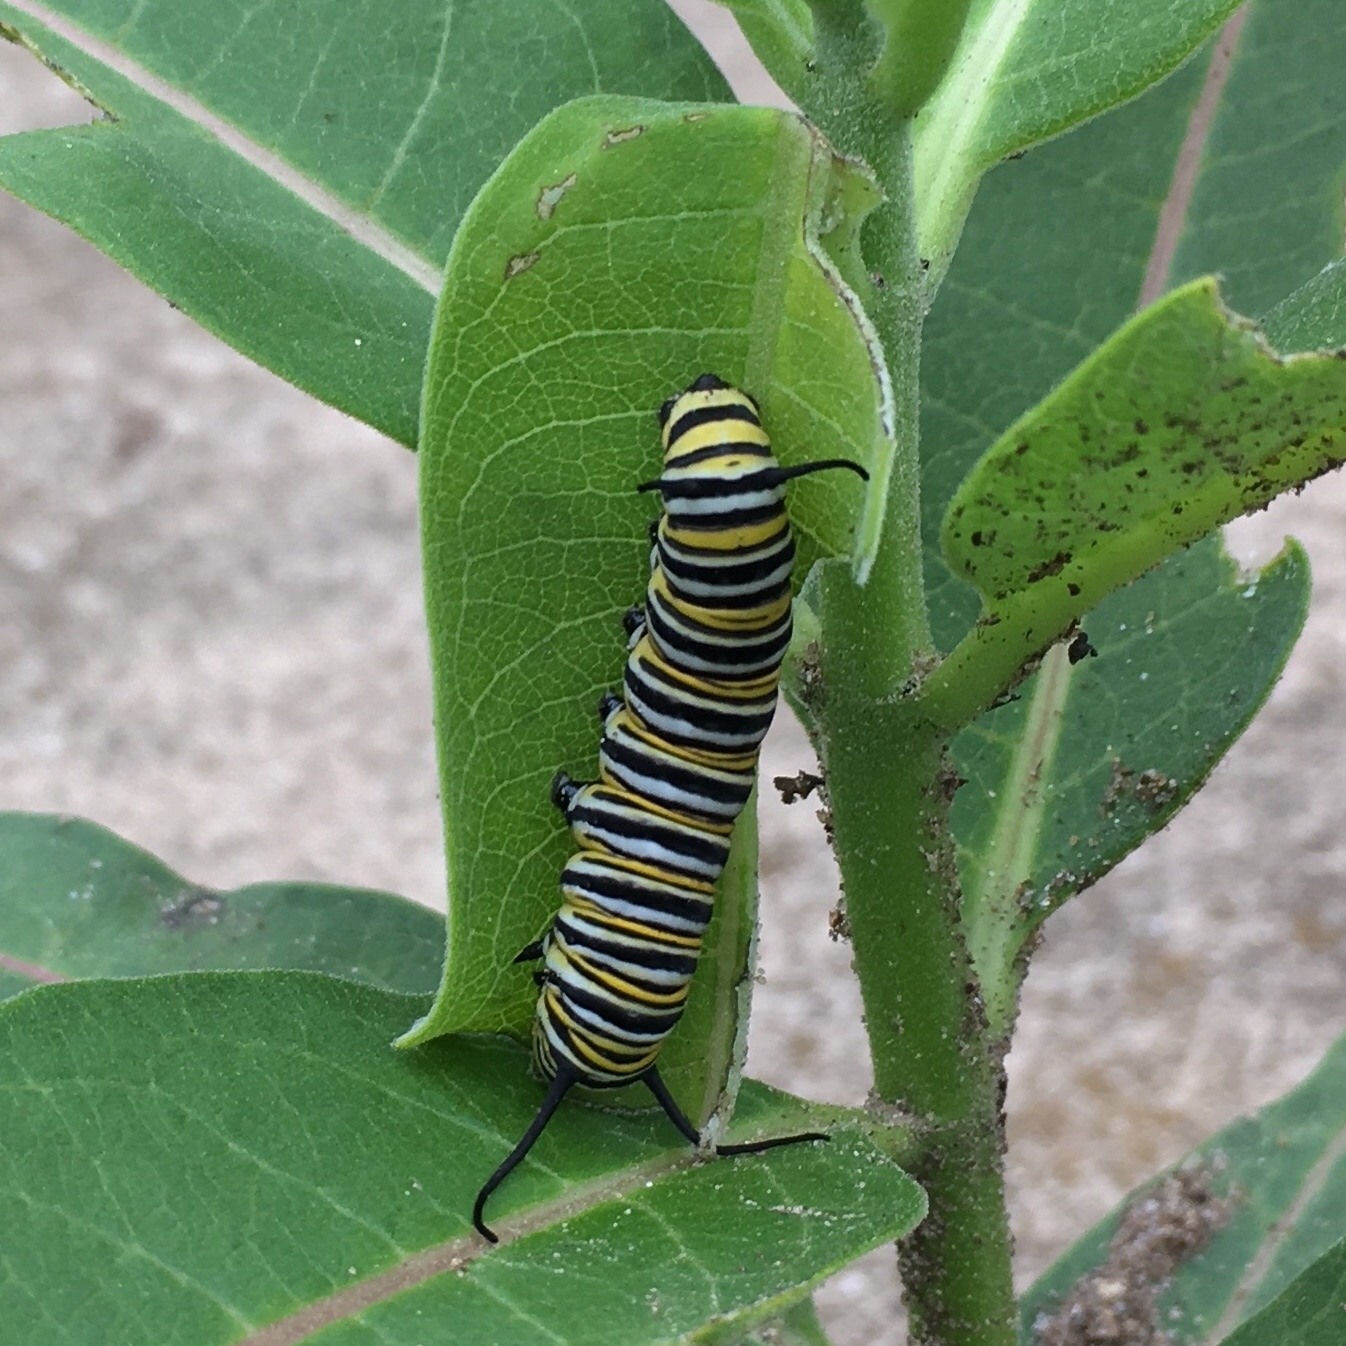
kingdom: Animalia
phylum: Arthropoda
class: Insecta
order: Lepidoptera
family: Nymphalidae
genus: Danaus
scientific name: Danaus plexippus
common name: Monarch
